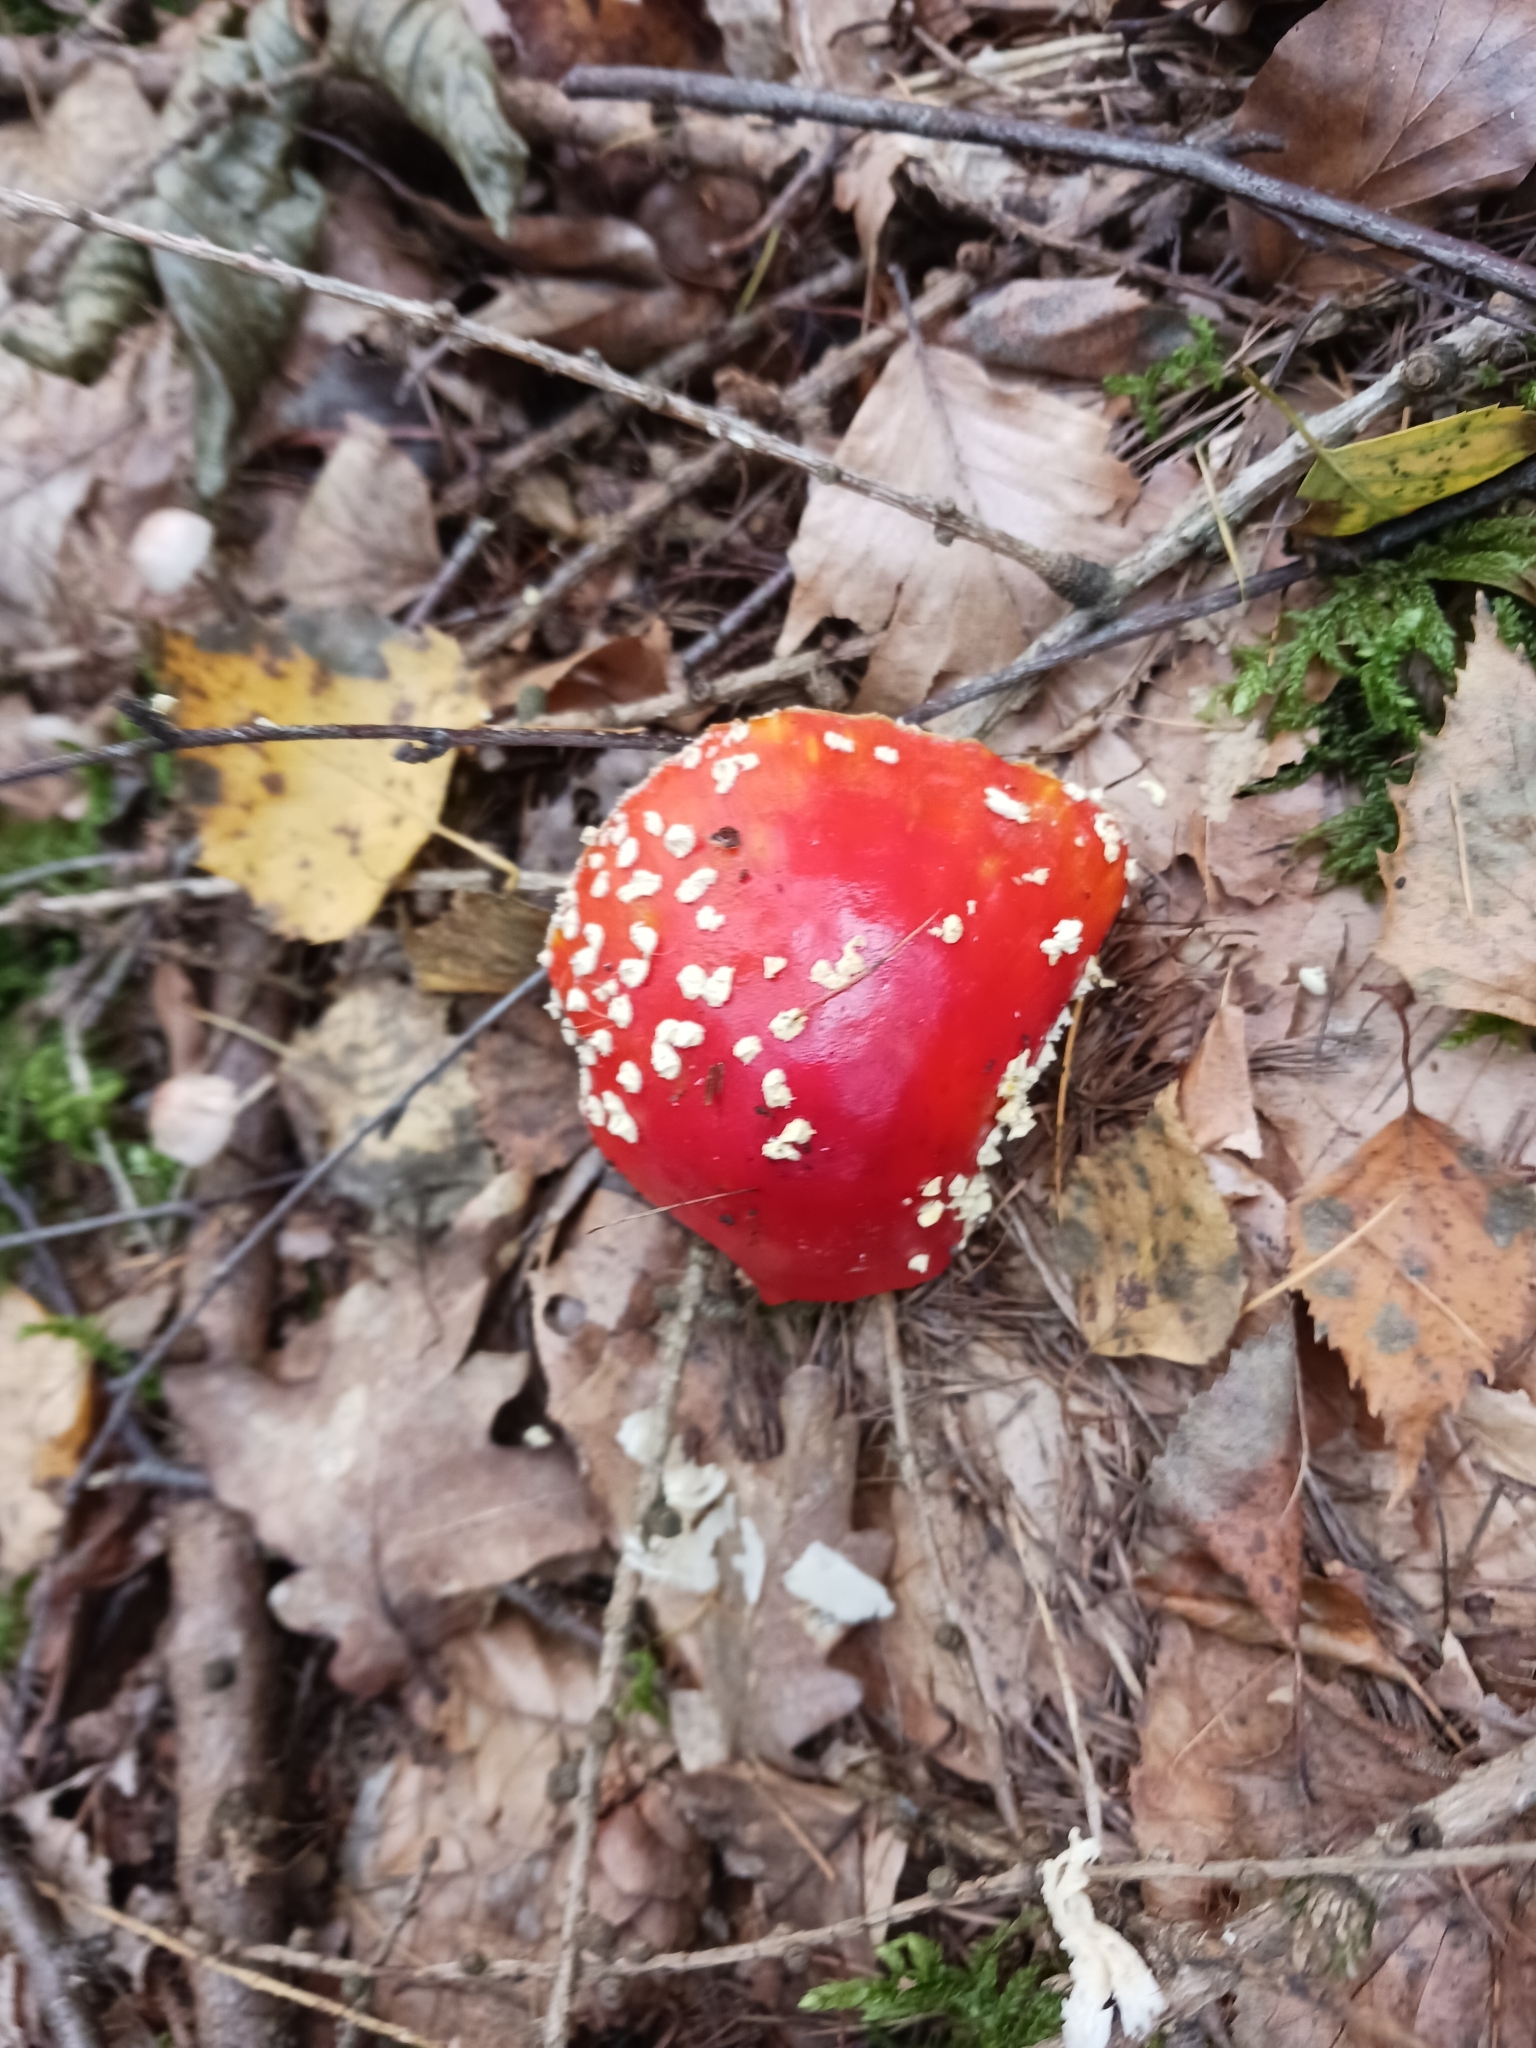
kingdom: Fungi
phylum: Basidiomycota
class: Agaricomycetes
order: Agaricales
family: Amanitaceae
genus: Amanita
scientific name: Amanita muscaria
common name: Fly agaric
